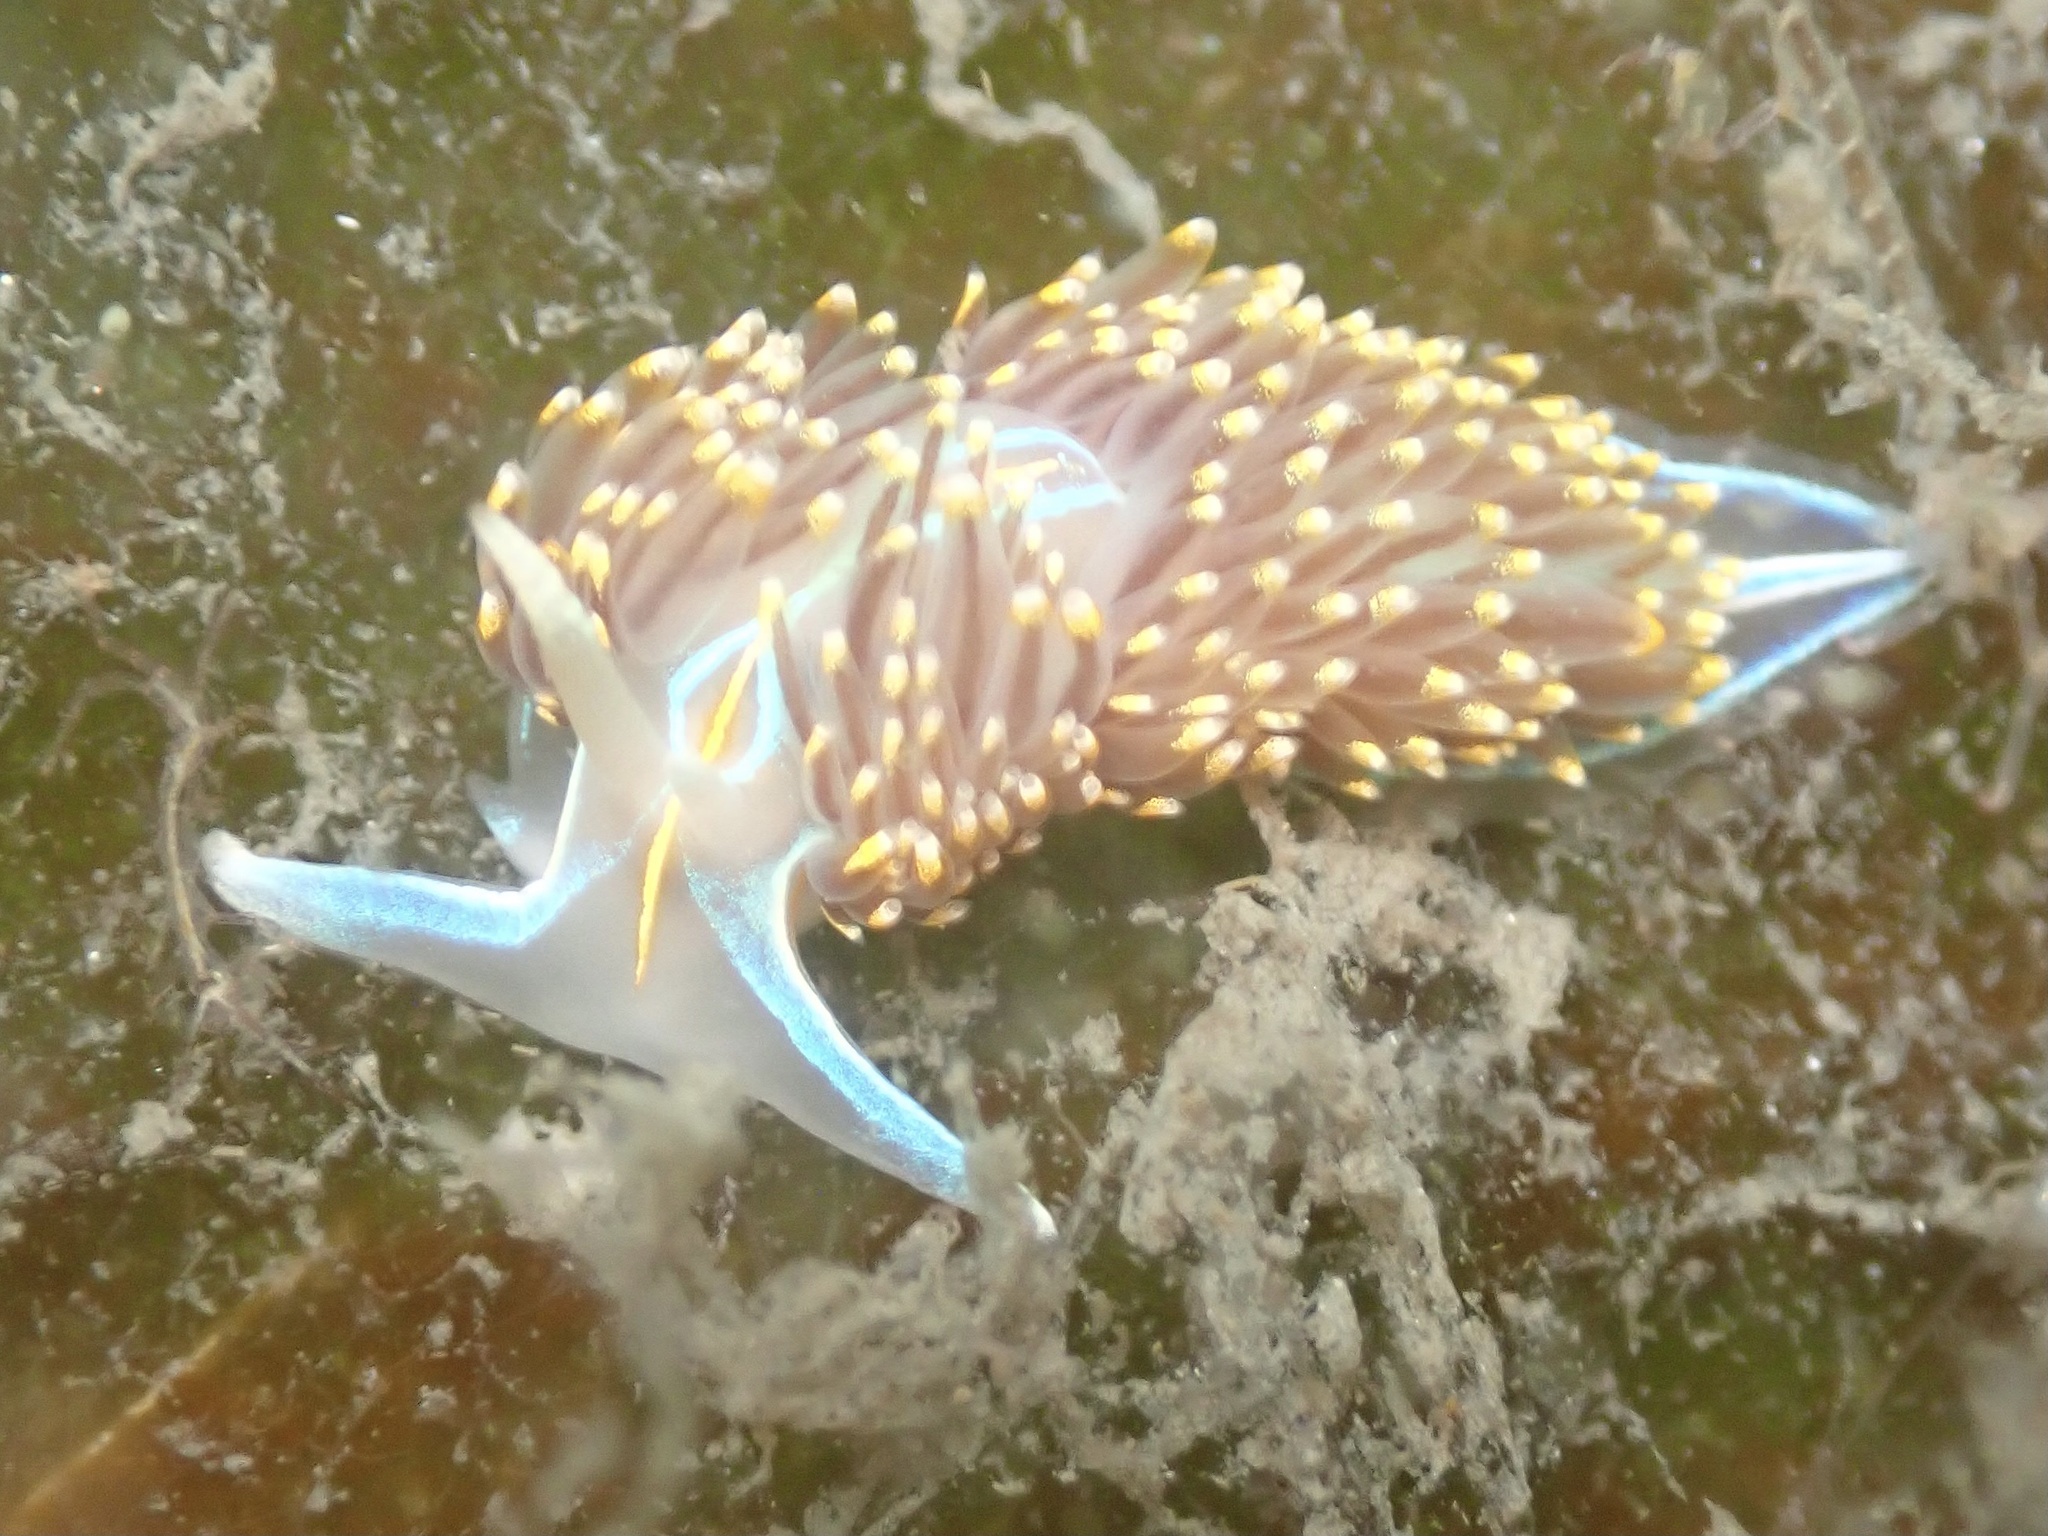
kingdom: Animalia
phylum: Mollusca
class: Gastropoda
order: Nudibranchia
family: Myrrhinidae
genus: Hermissenda
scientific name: Hermissenda opalescens
